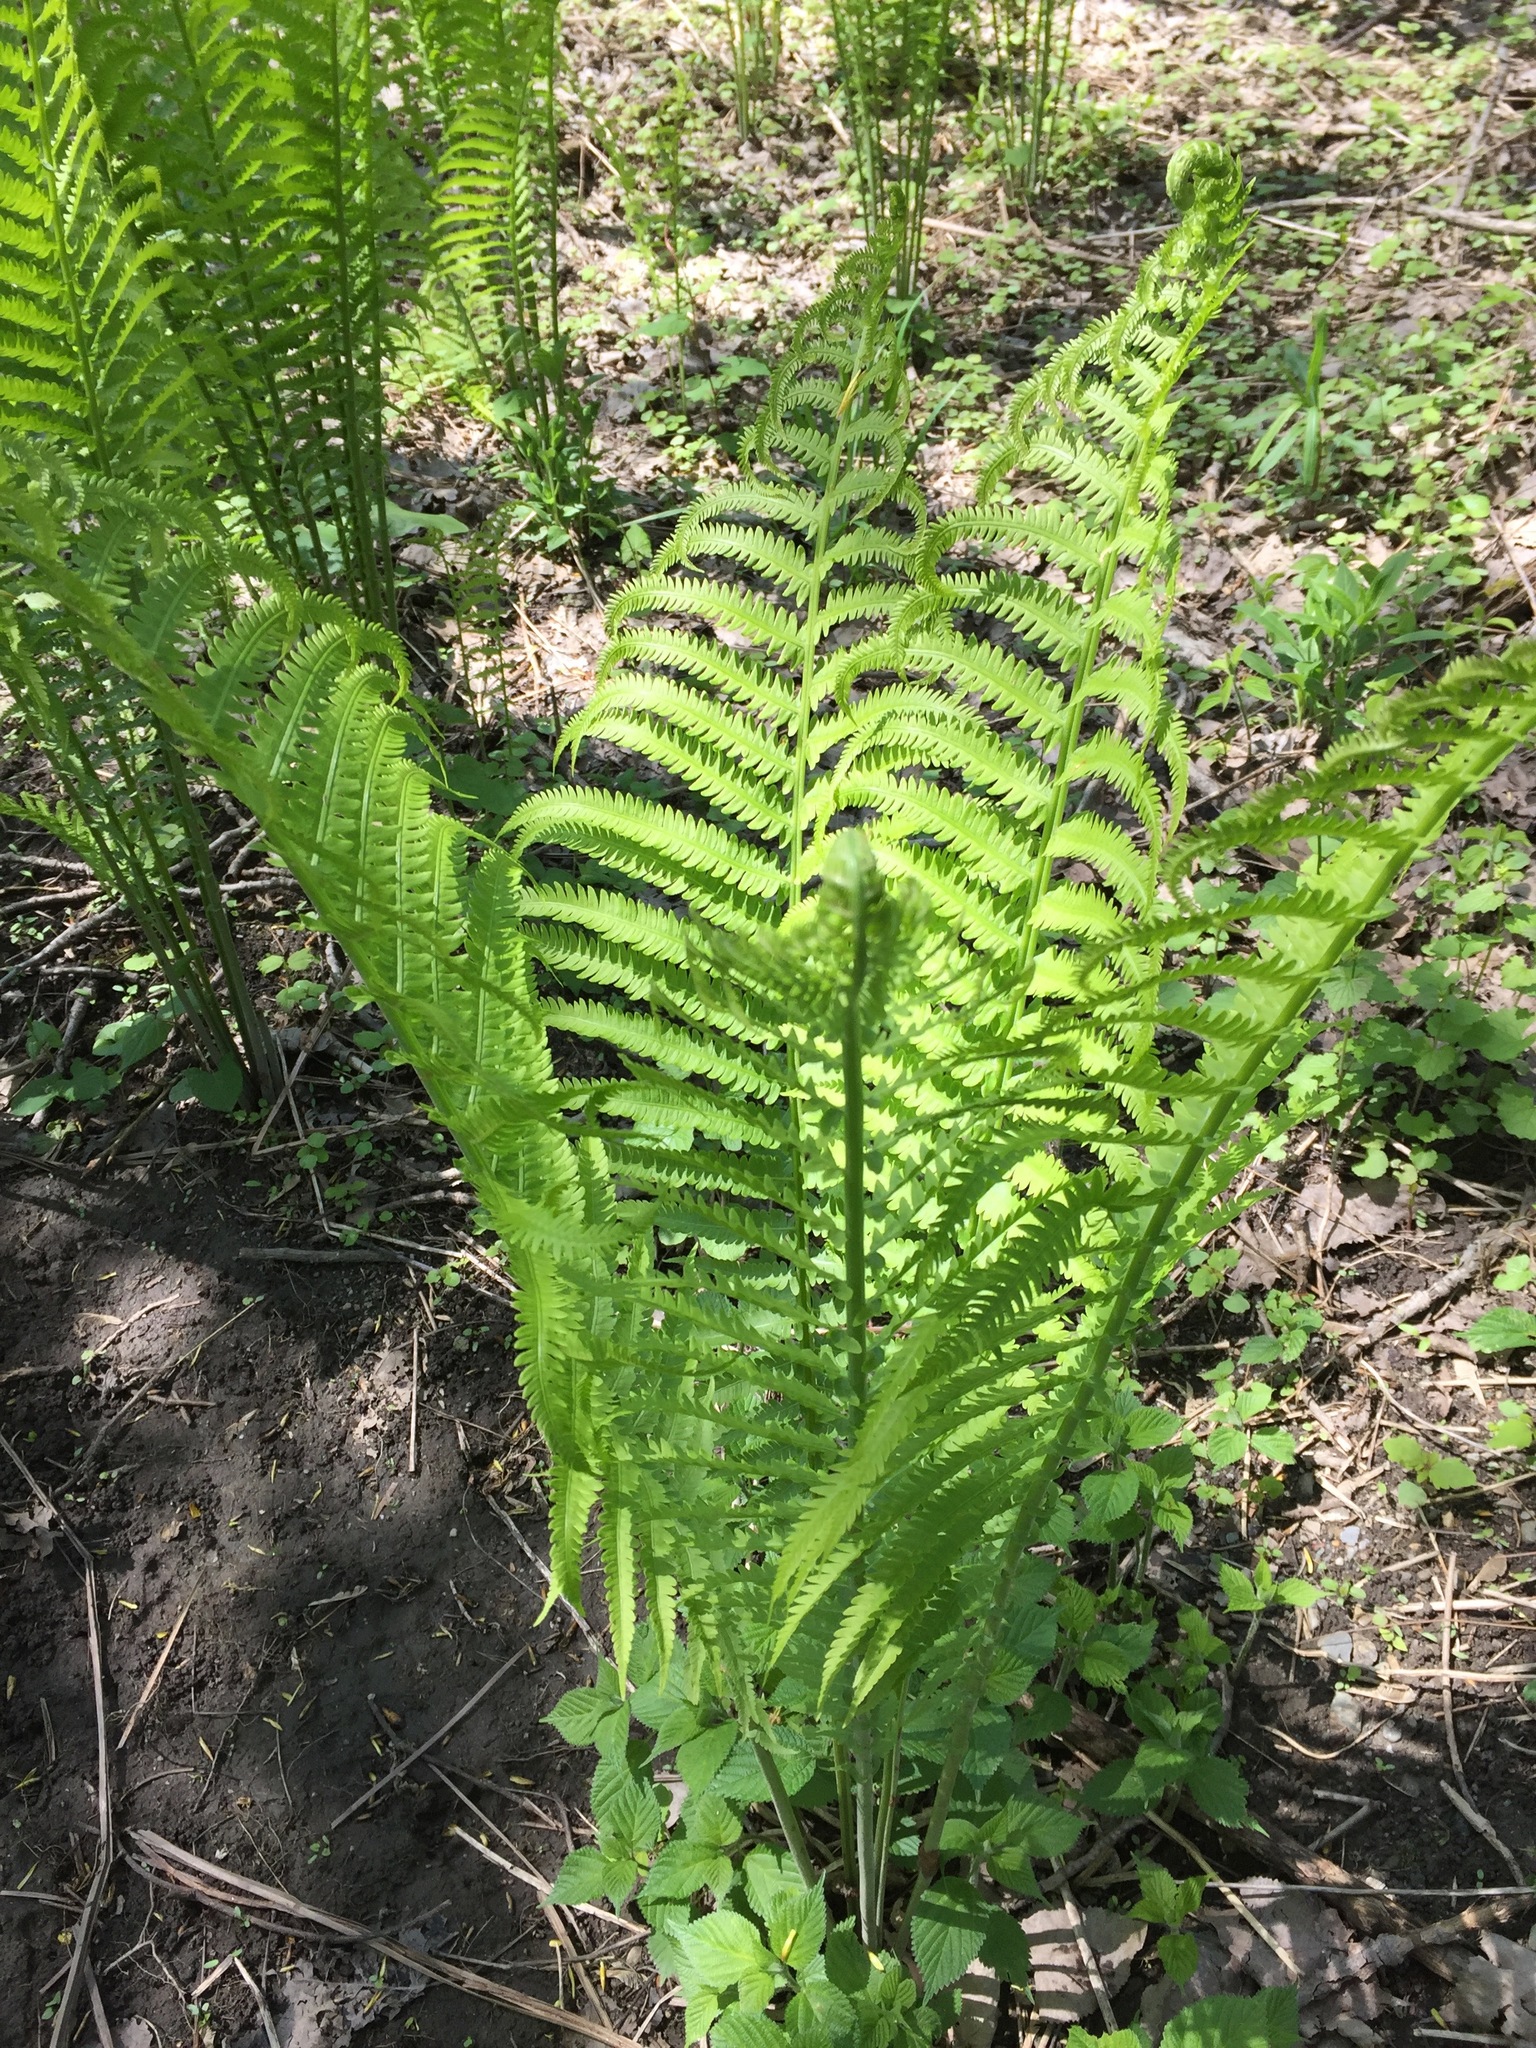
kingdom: Plantae
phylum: Tracheophyta
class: Polypodiopsida
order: Polypodiales
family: Onocleaceae
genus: Matteuccia
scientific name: Matteuccia struthiopteris
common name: Ostrich fern
